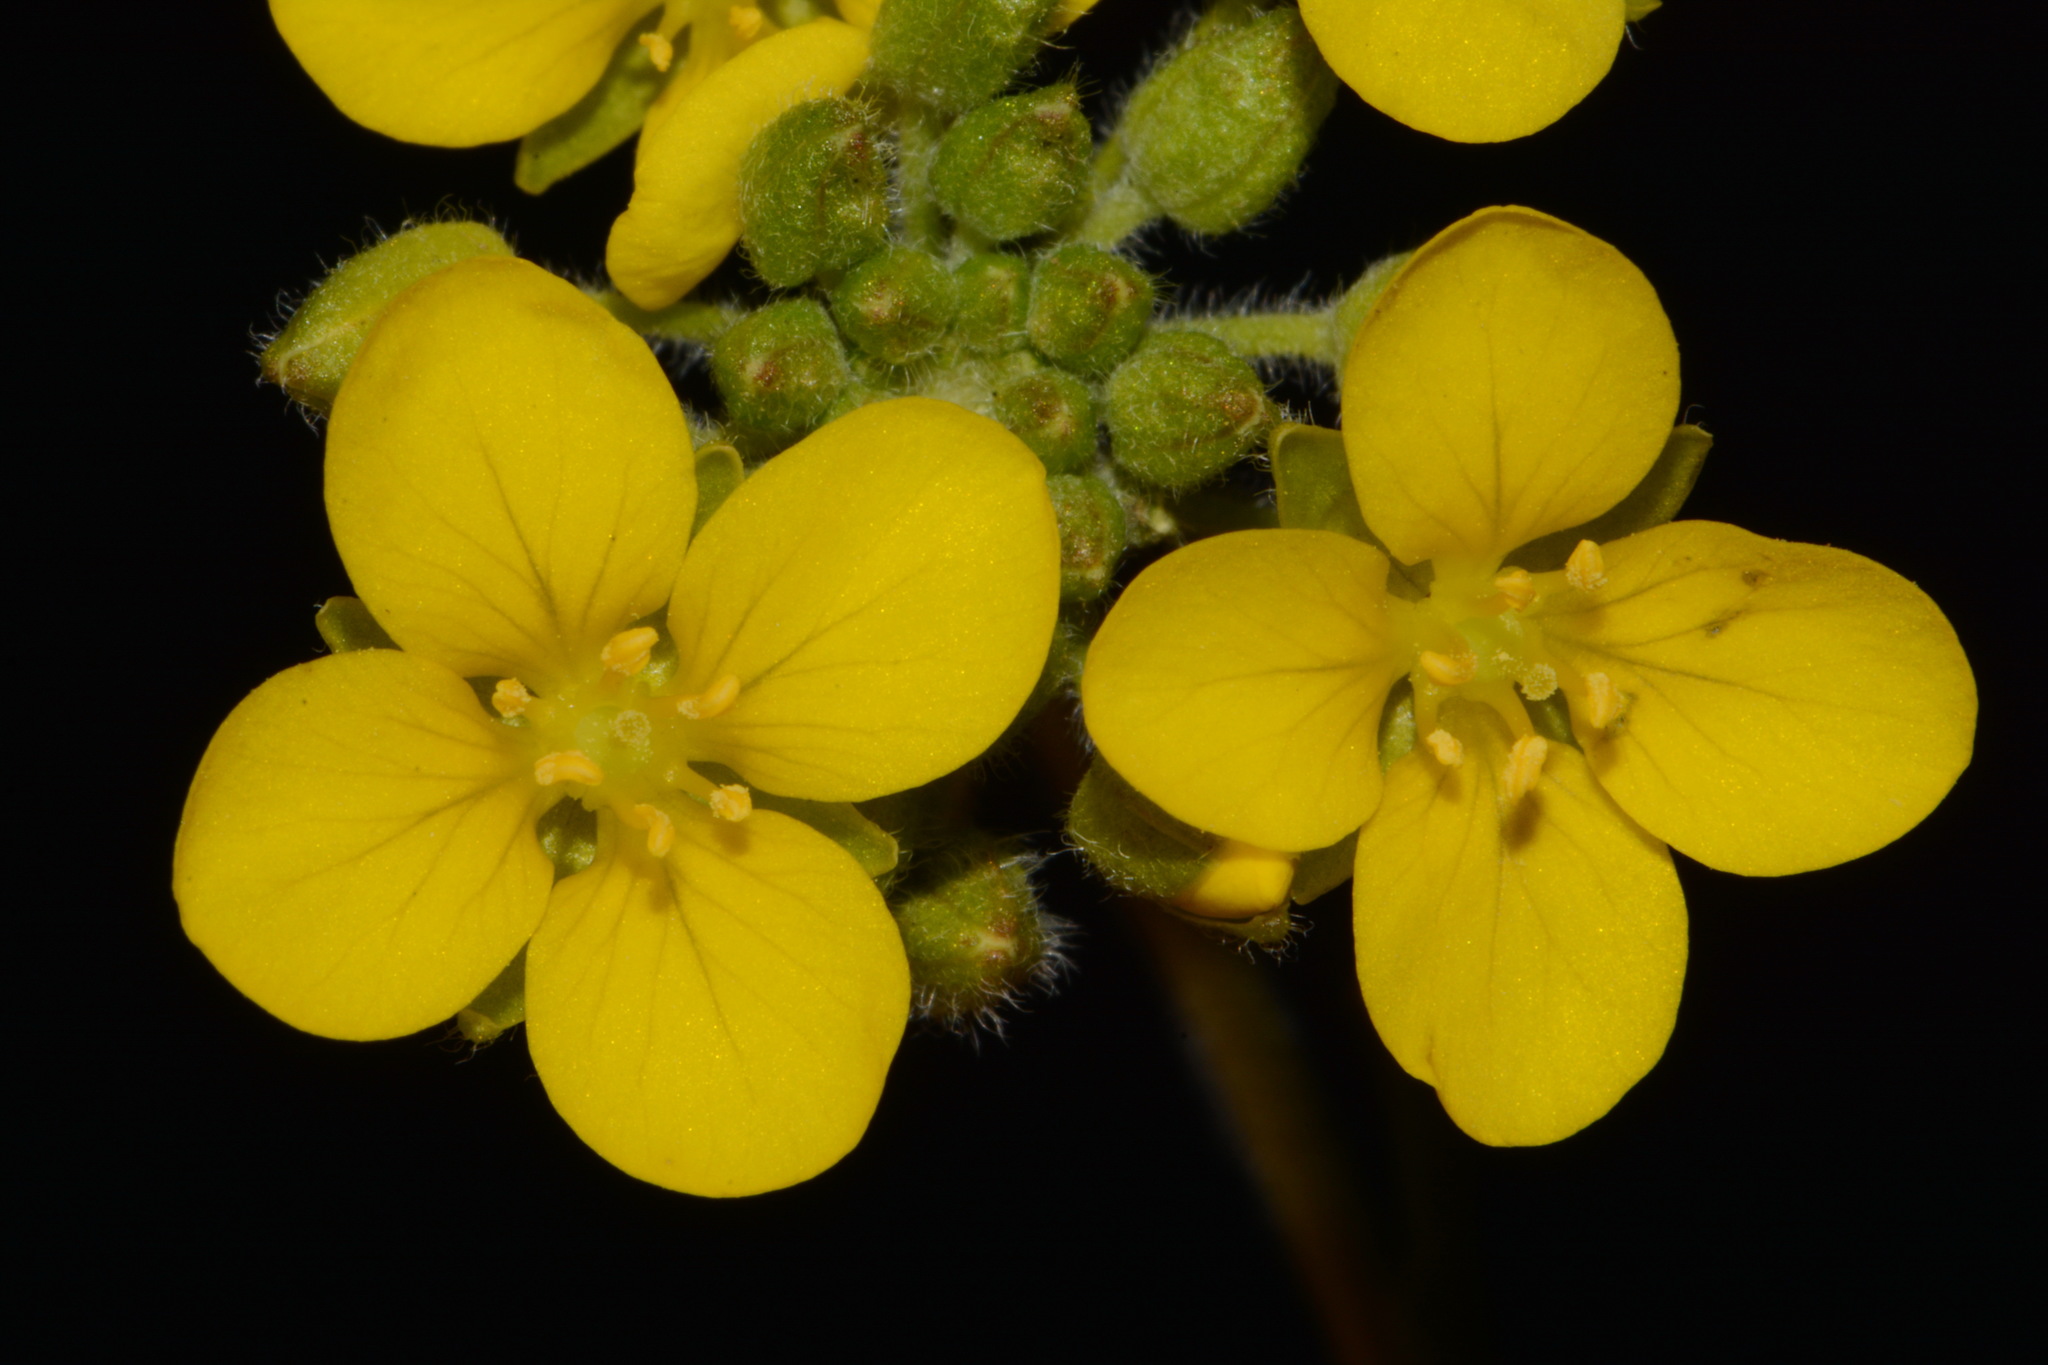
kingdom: Plantae
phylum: Tracheophyta
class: Magnoliopsida
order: Brassicales
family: Brassicaceae
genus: Paysonia
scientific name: Paysonia densipila
